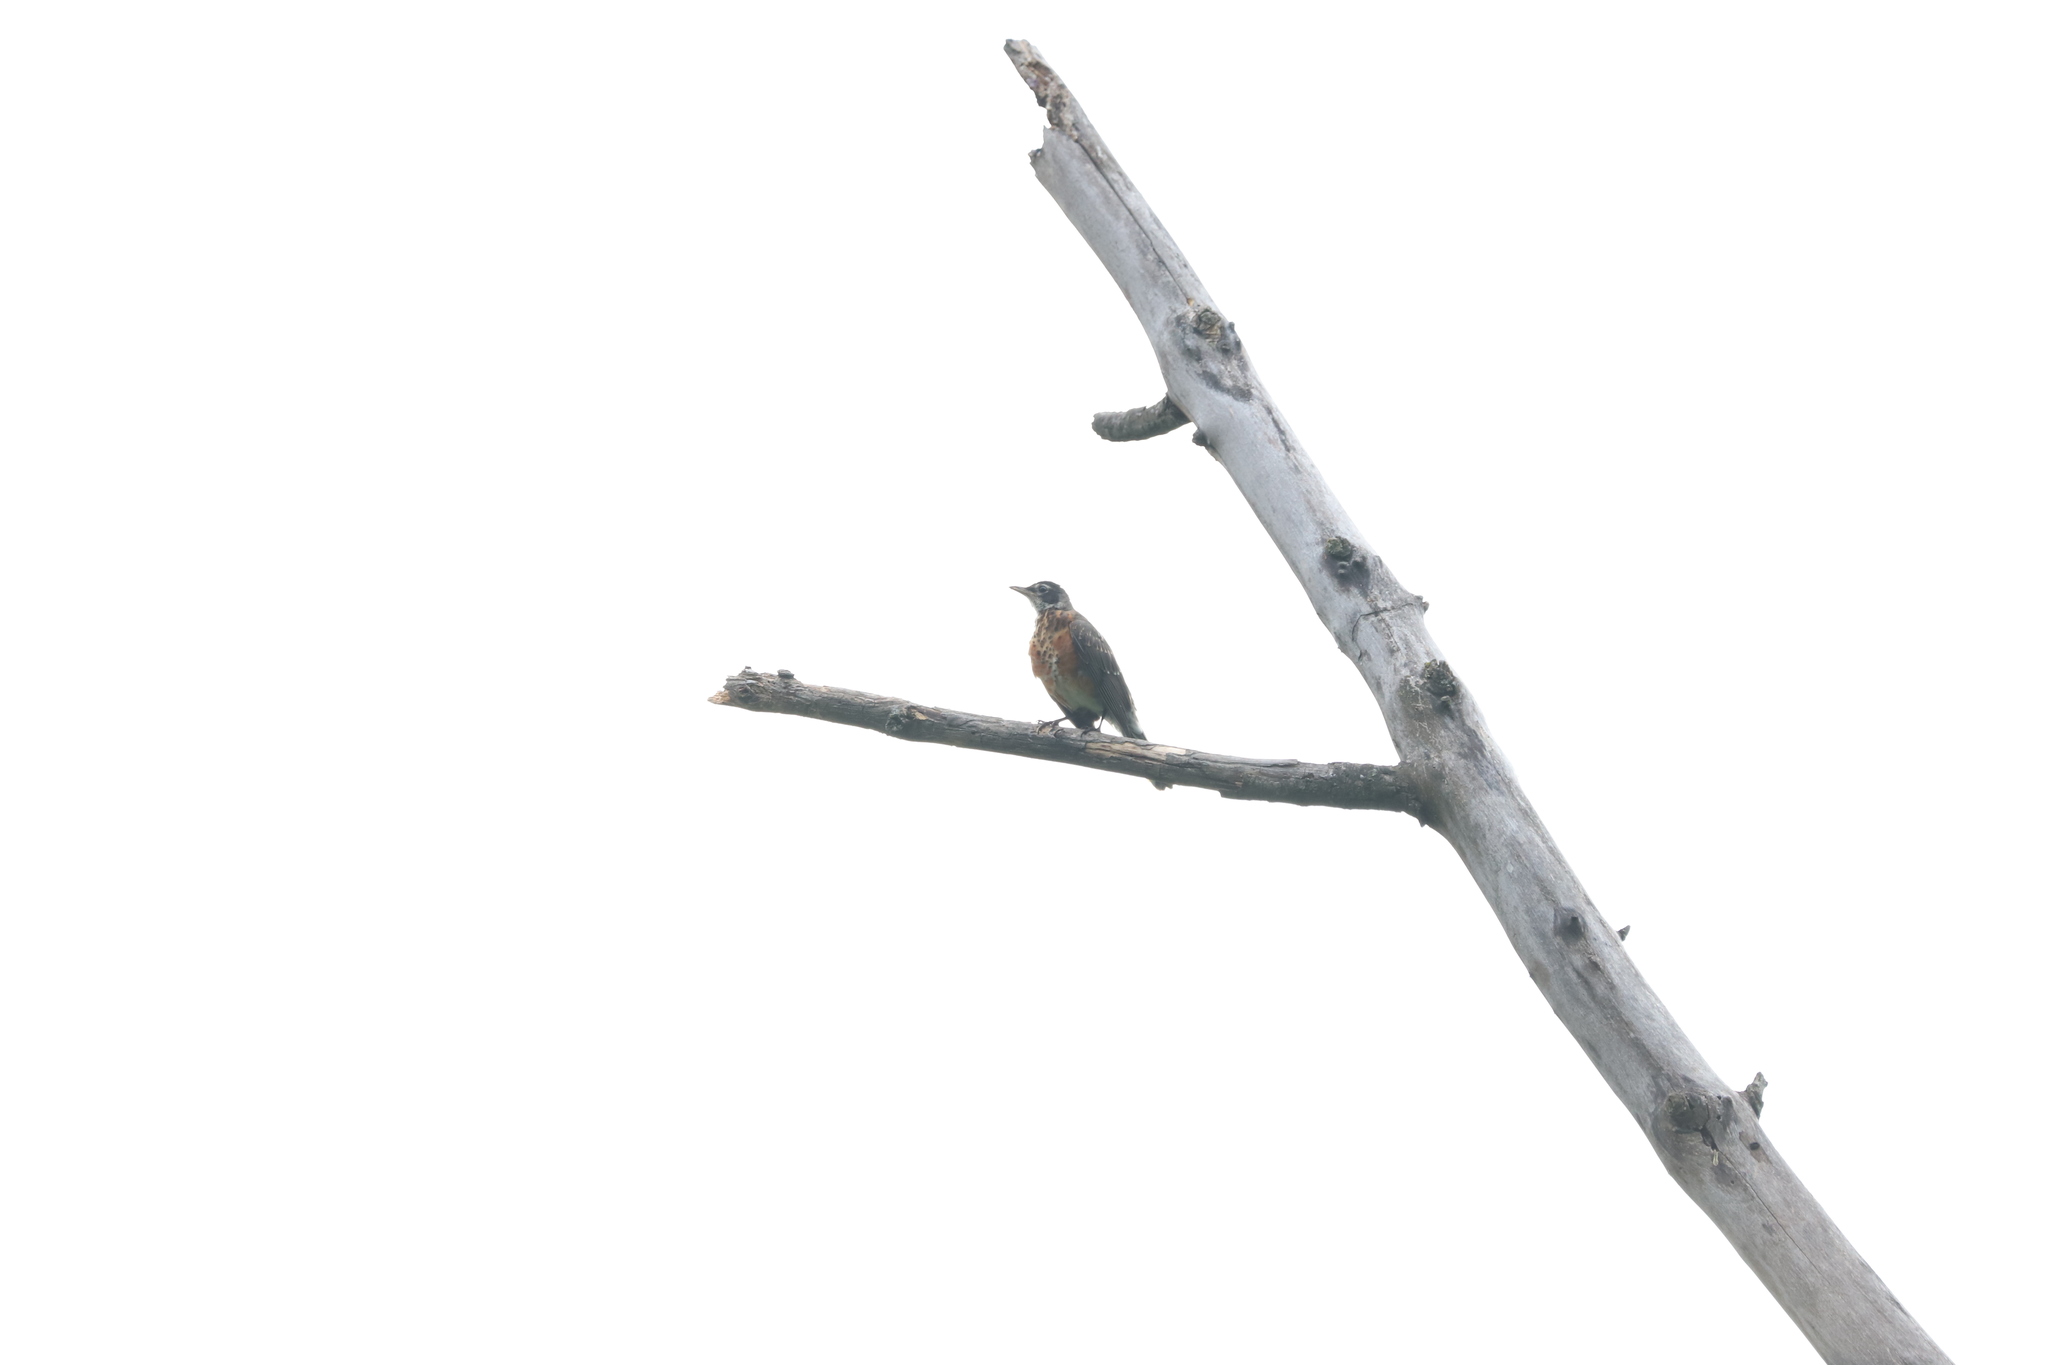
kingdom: Animalia
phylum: Chordata
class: Aves
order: Passeriformes
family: Turdidae
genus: Turdus
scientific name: Turdus migratorius
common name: American robin
